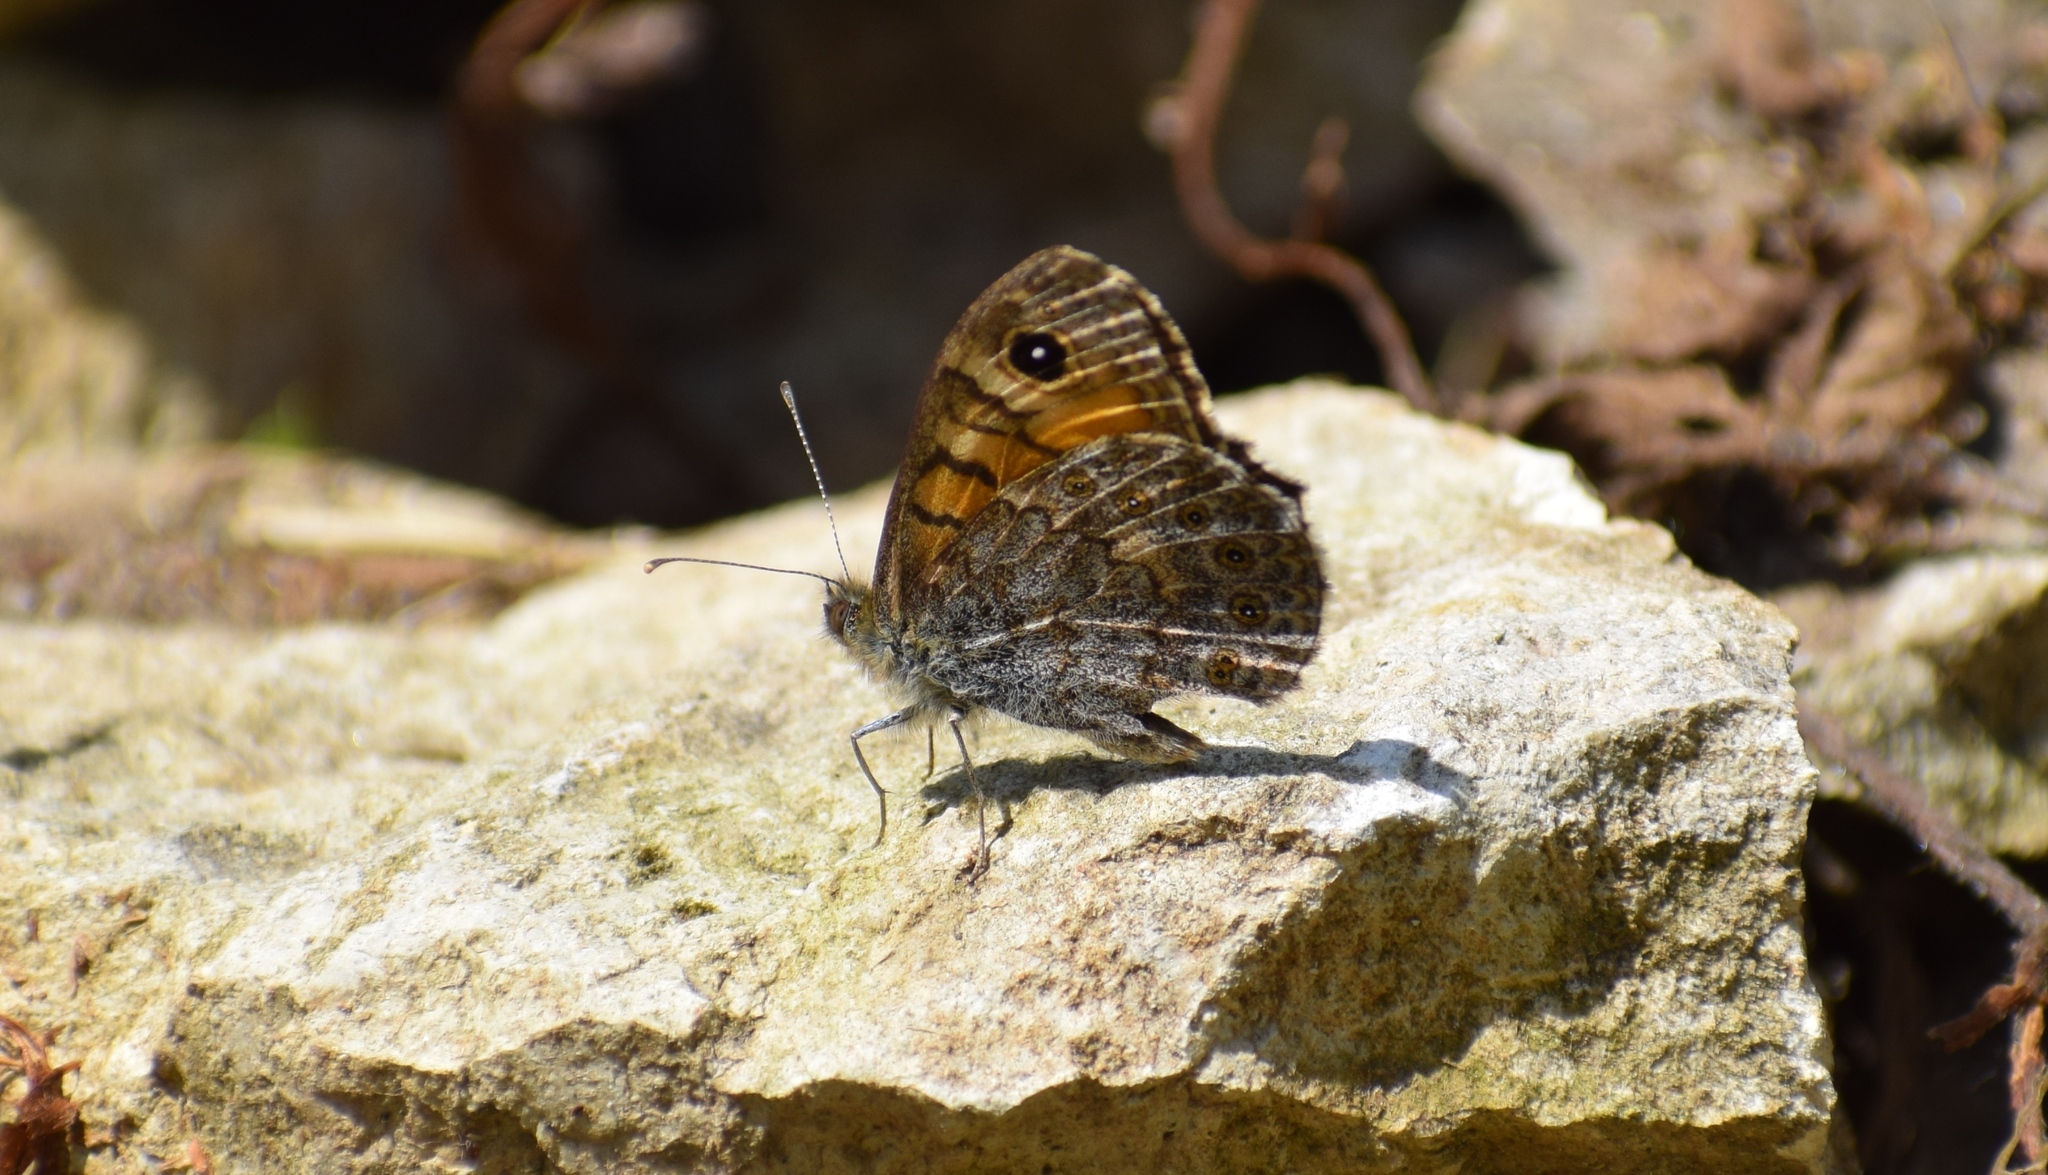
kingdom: Animalia
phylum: Arthropoda
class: Insecta
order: Lepidoptera
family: Nymphalidae
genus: Pararge
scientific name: Pararge Lasiommata megera
